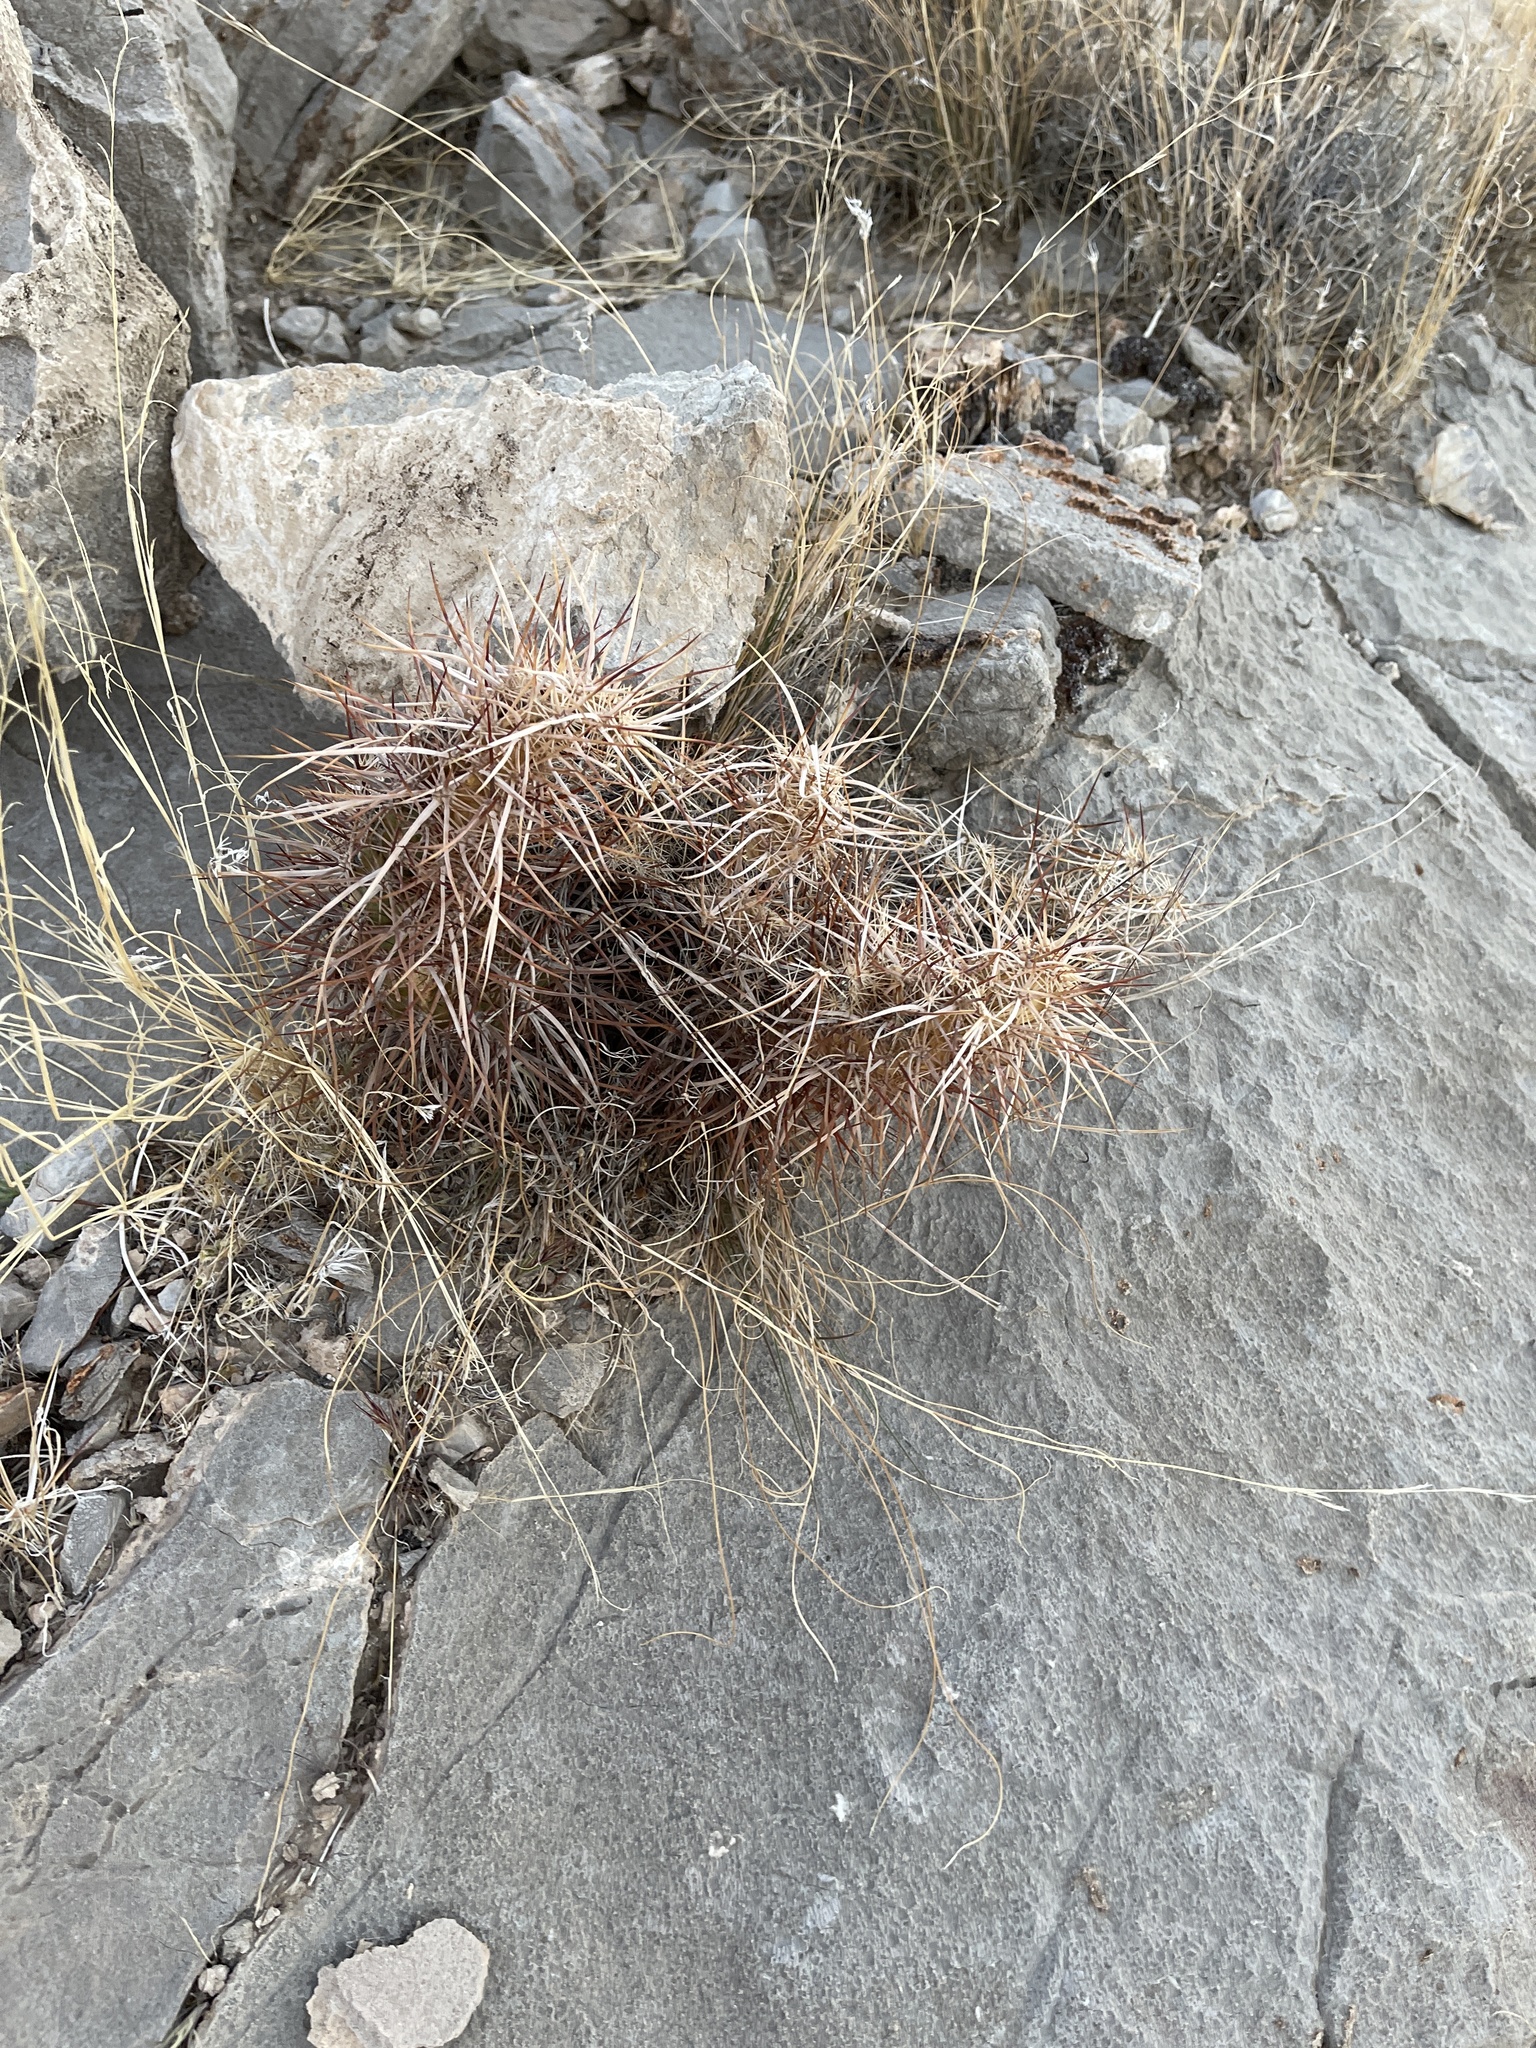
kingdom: Plantae
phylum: Tracheophyta
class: Magnoliopsida
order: Caryophyllales
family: Cactaceae
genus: Echinocereus
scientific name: Echinocereus engelmannii
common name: Engelmann's hedgehog cactus
